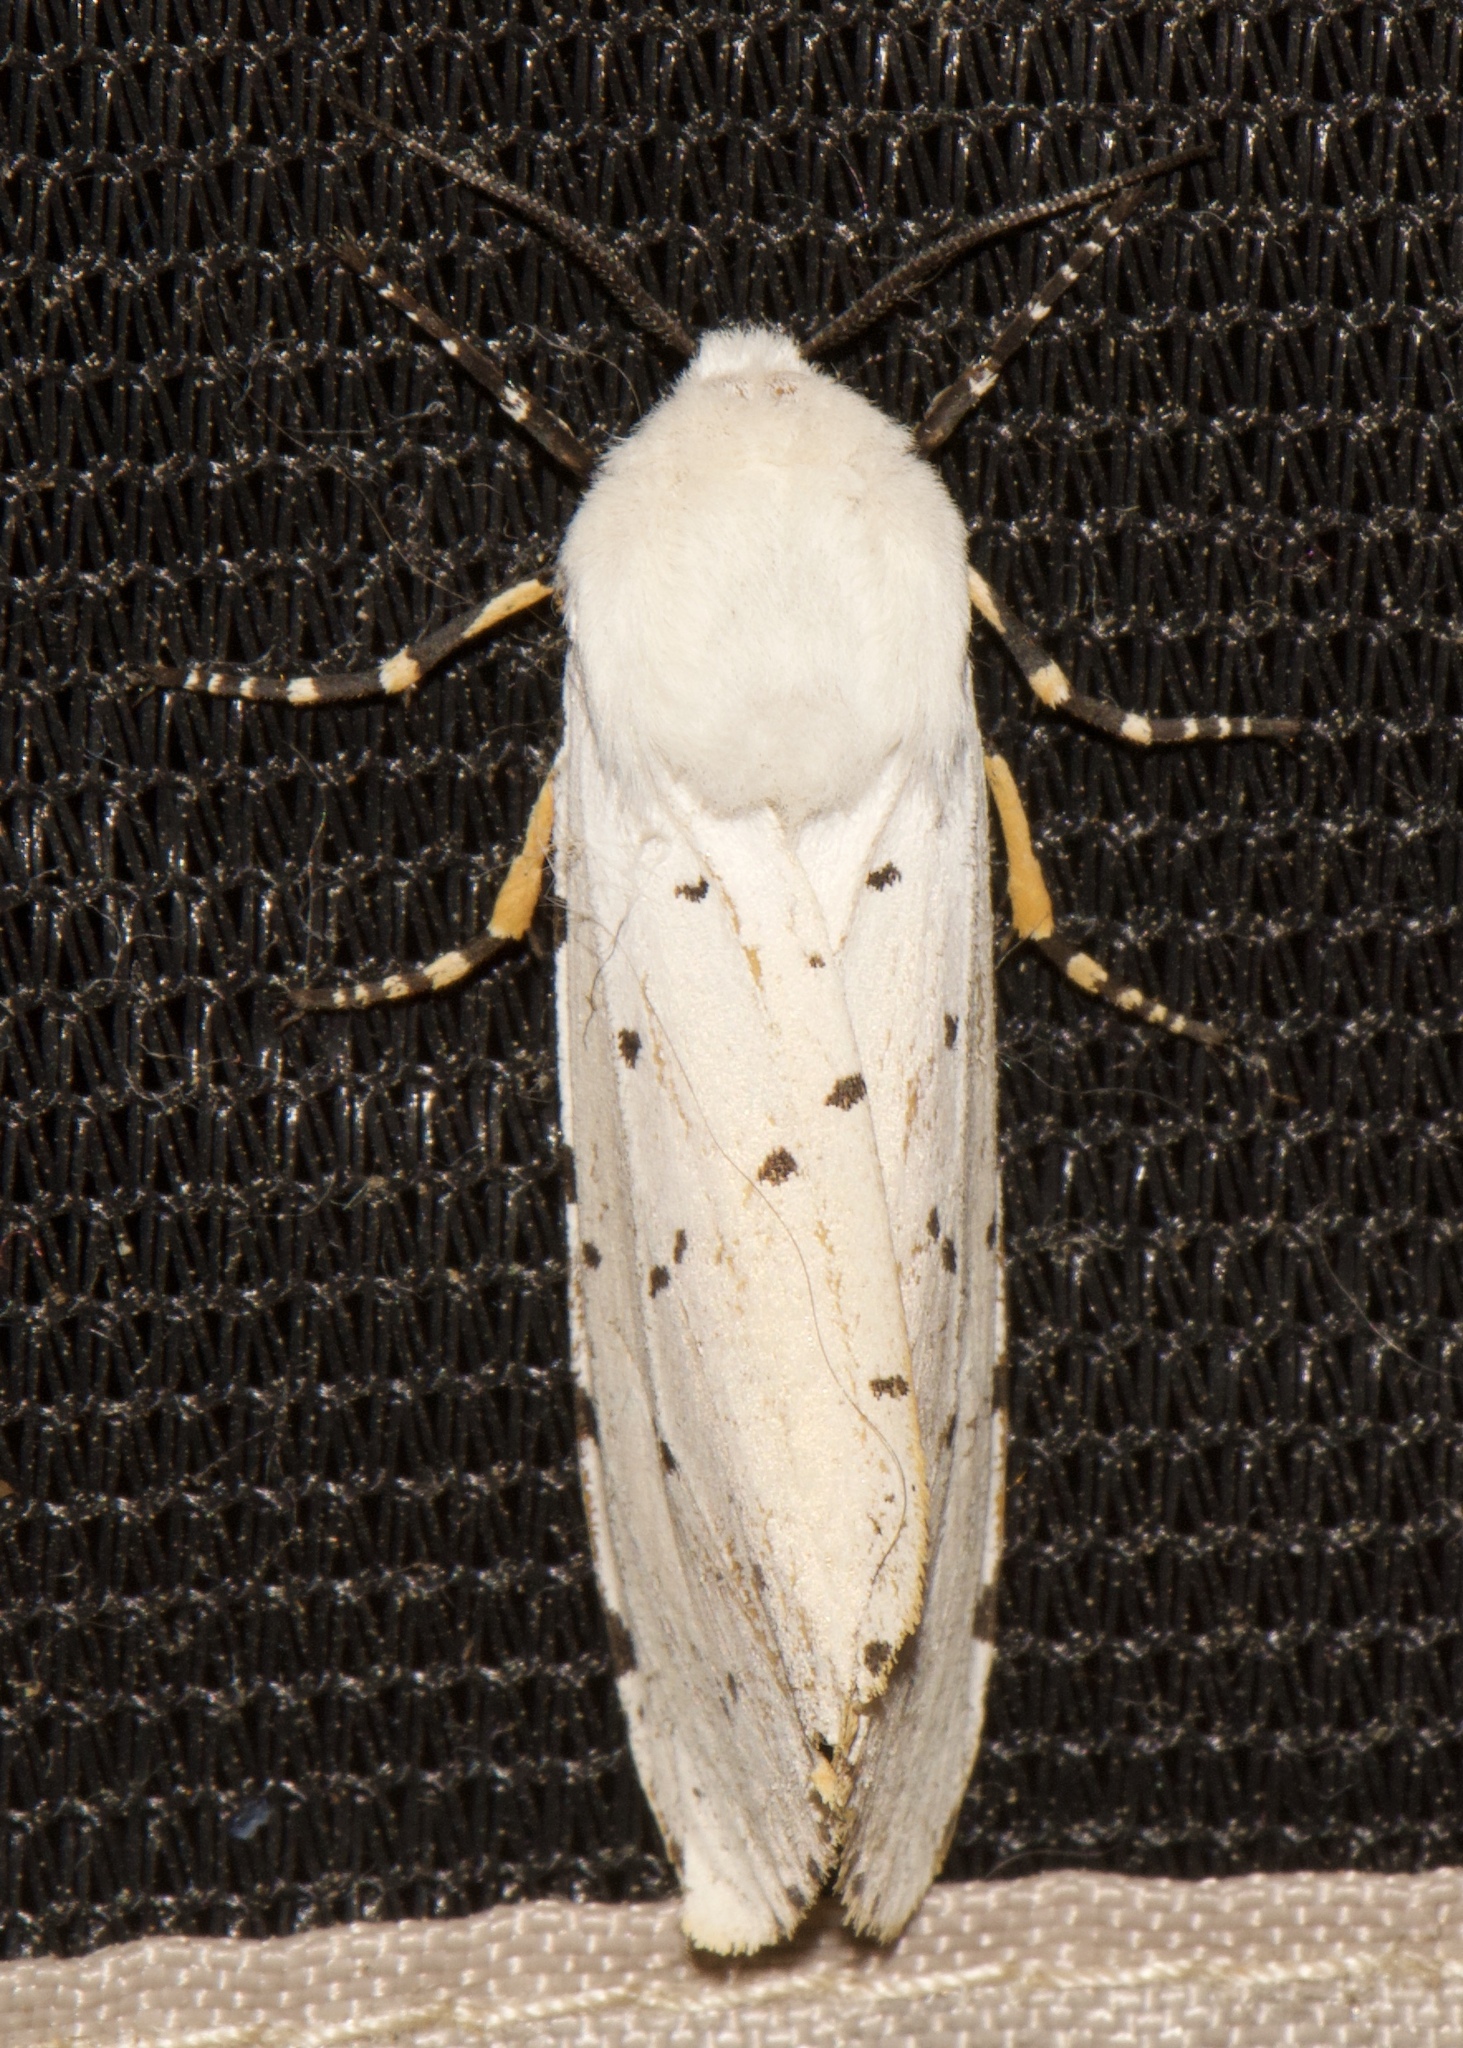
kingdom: Animalia
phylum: Arthropoda
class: Insecta
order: Lepidoptera
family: Erebidae
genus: Estigmene
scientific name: Estigmene acrea
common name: Salt marsh moth
